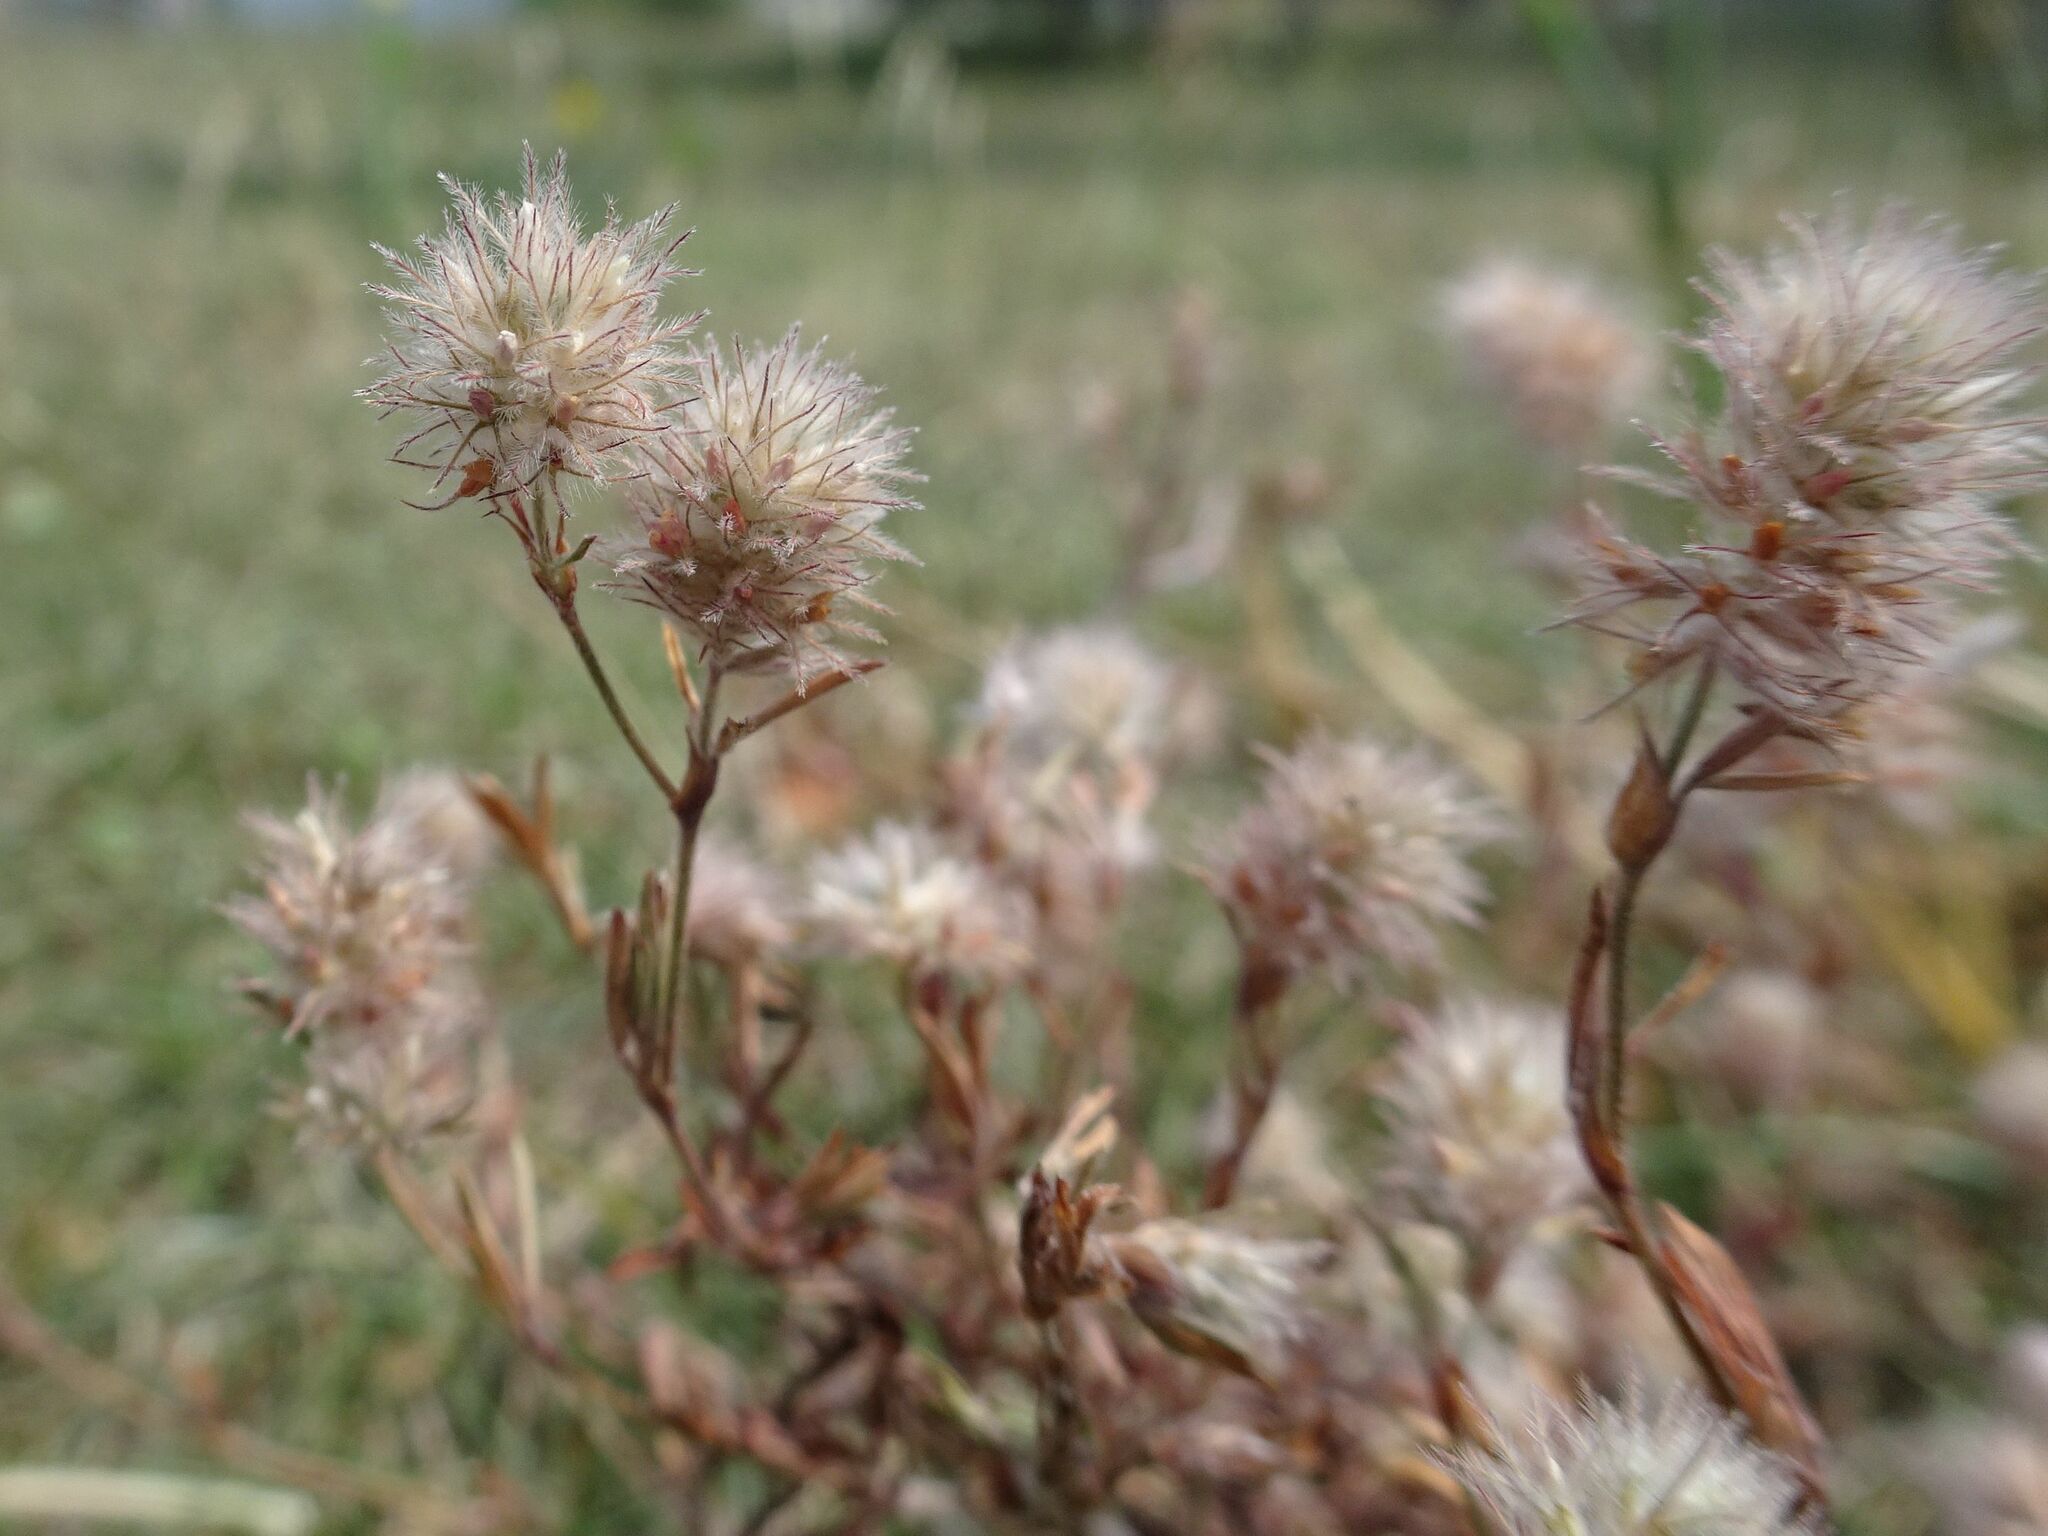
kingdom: Plantae
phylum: Tracheophyta
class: Magnoliopsida
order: Fabales
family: Fabaceae
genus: Trifolium
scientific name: Trifolium arvense
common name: Hare's-foot clover
